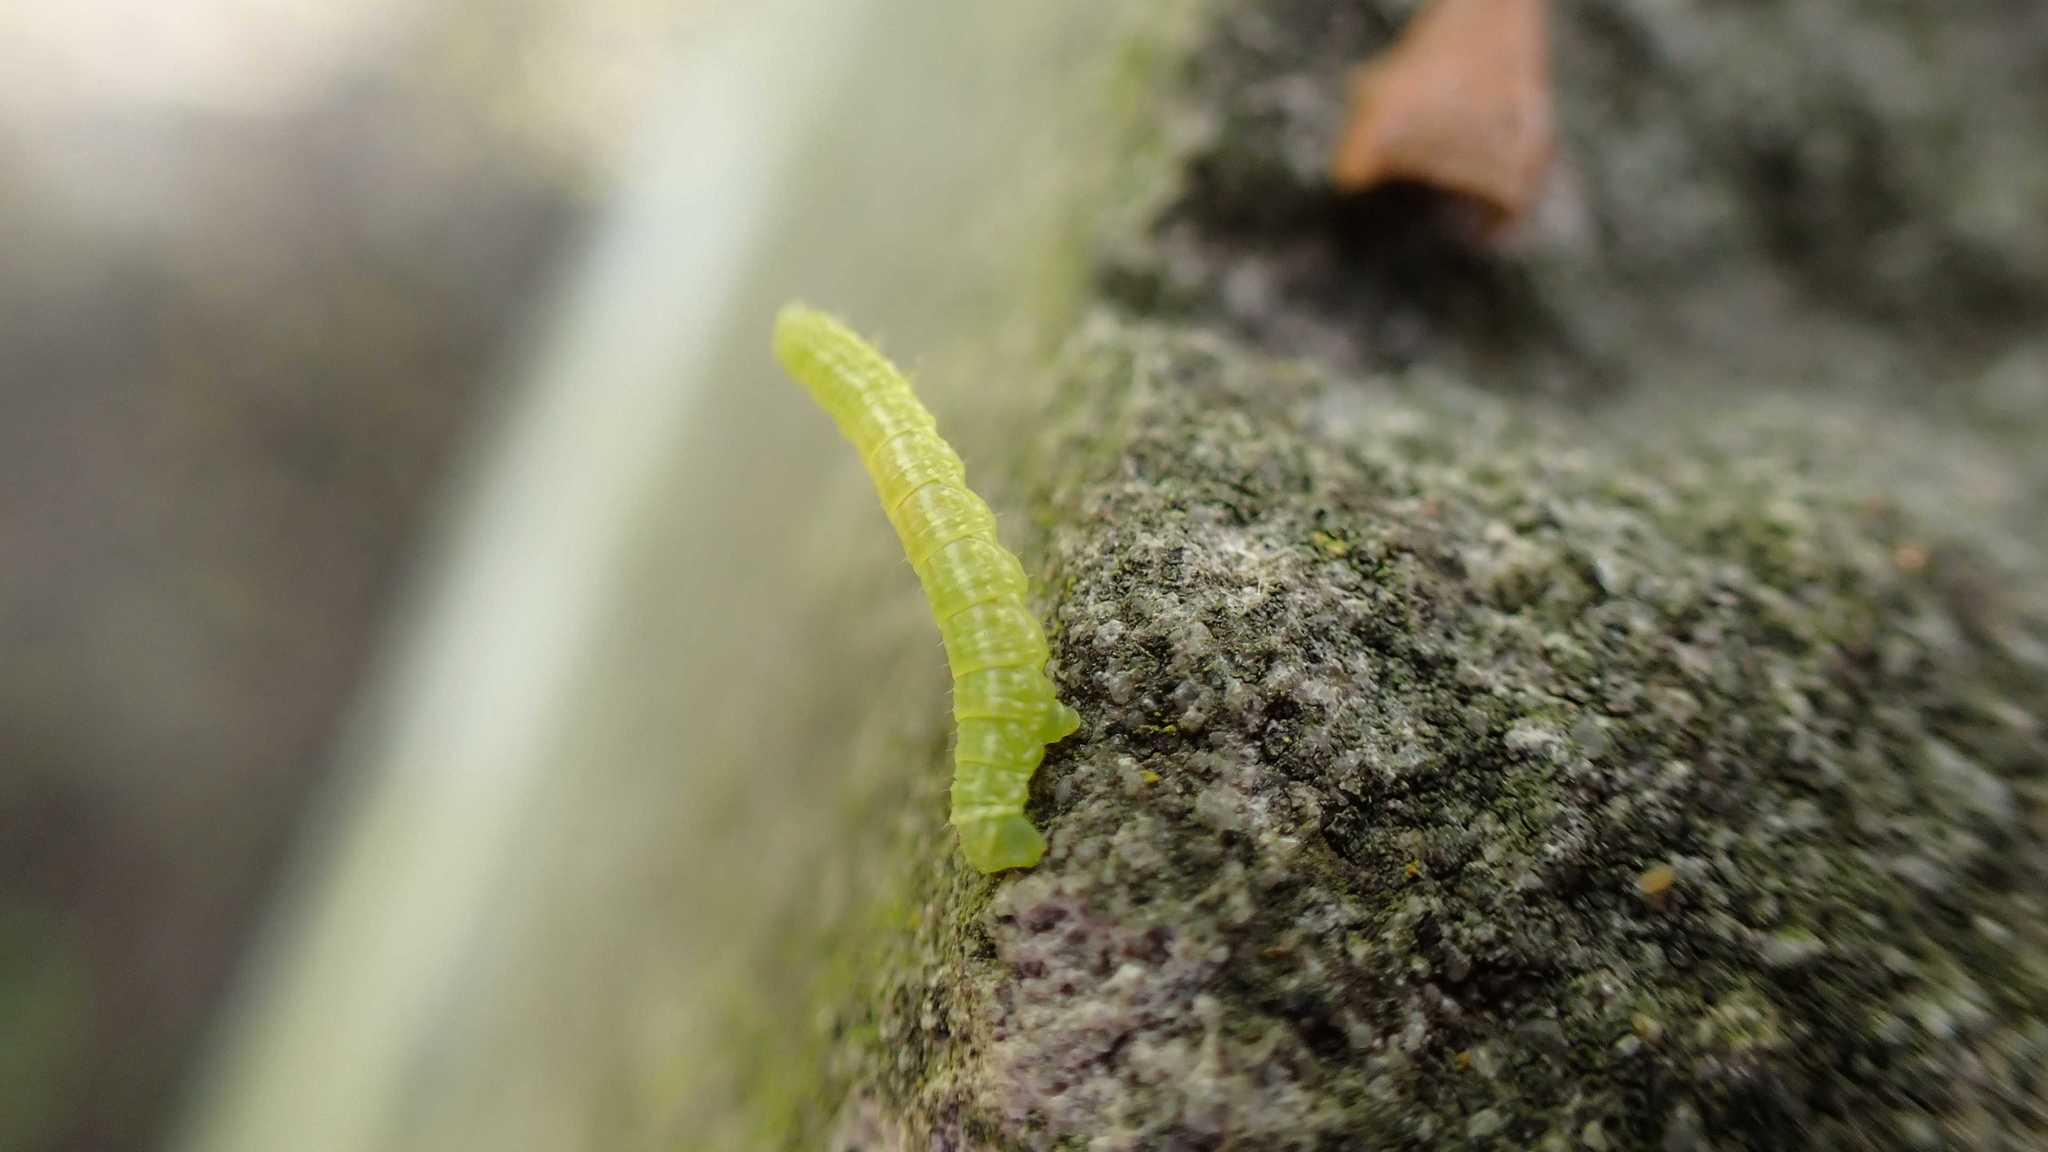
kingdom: Animalia
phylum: Arthropoda
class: Insecta
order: Lepidoptera
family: Geometridae
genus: Operophtera
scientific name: Operophtera brumata
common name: Winter moth
